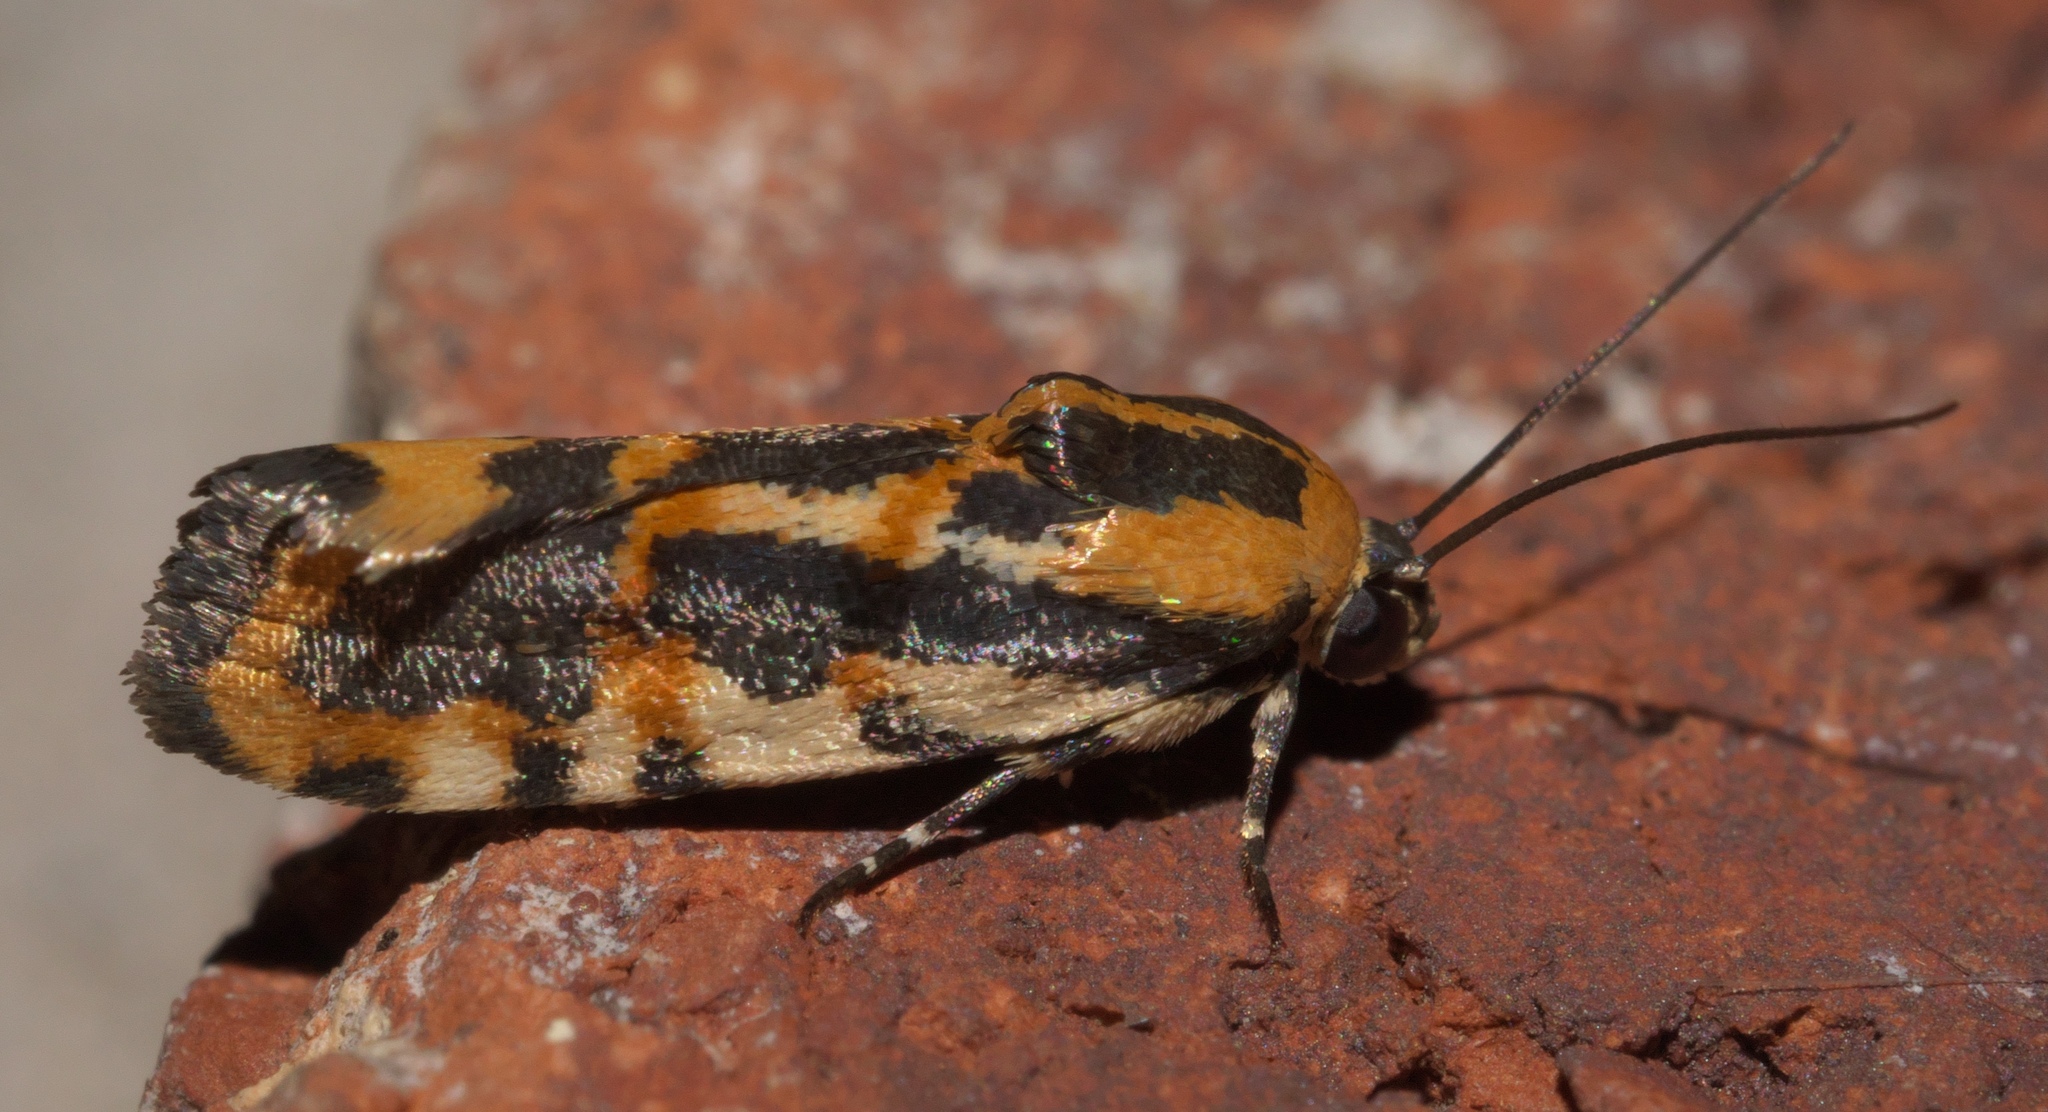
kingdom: Animalia
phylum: Arthropoda
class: Insecta
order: Lepidoptera
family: Noctuidae
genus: Acontia
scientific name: Acontia leo
